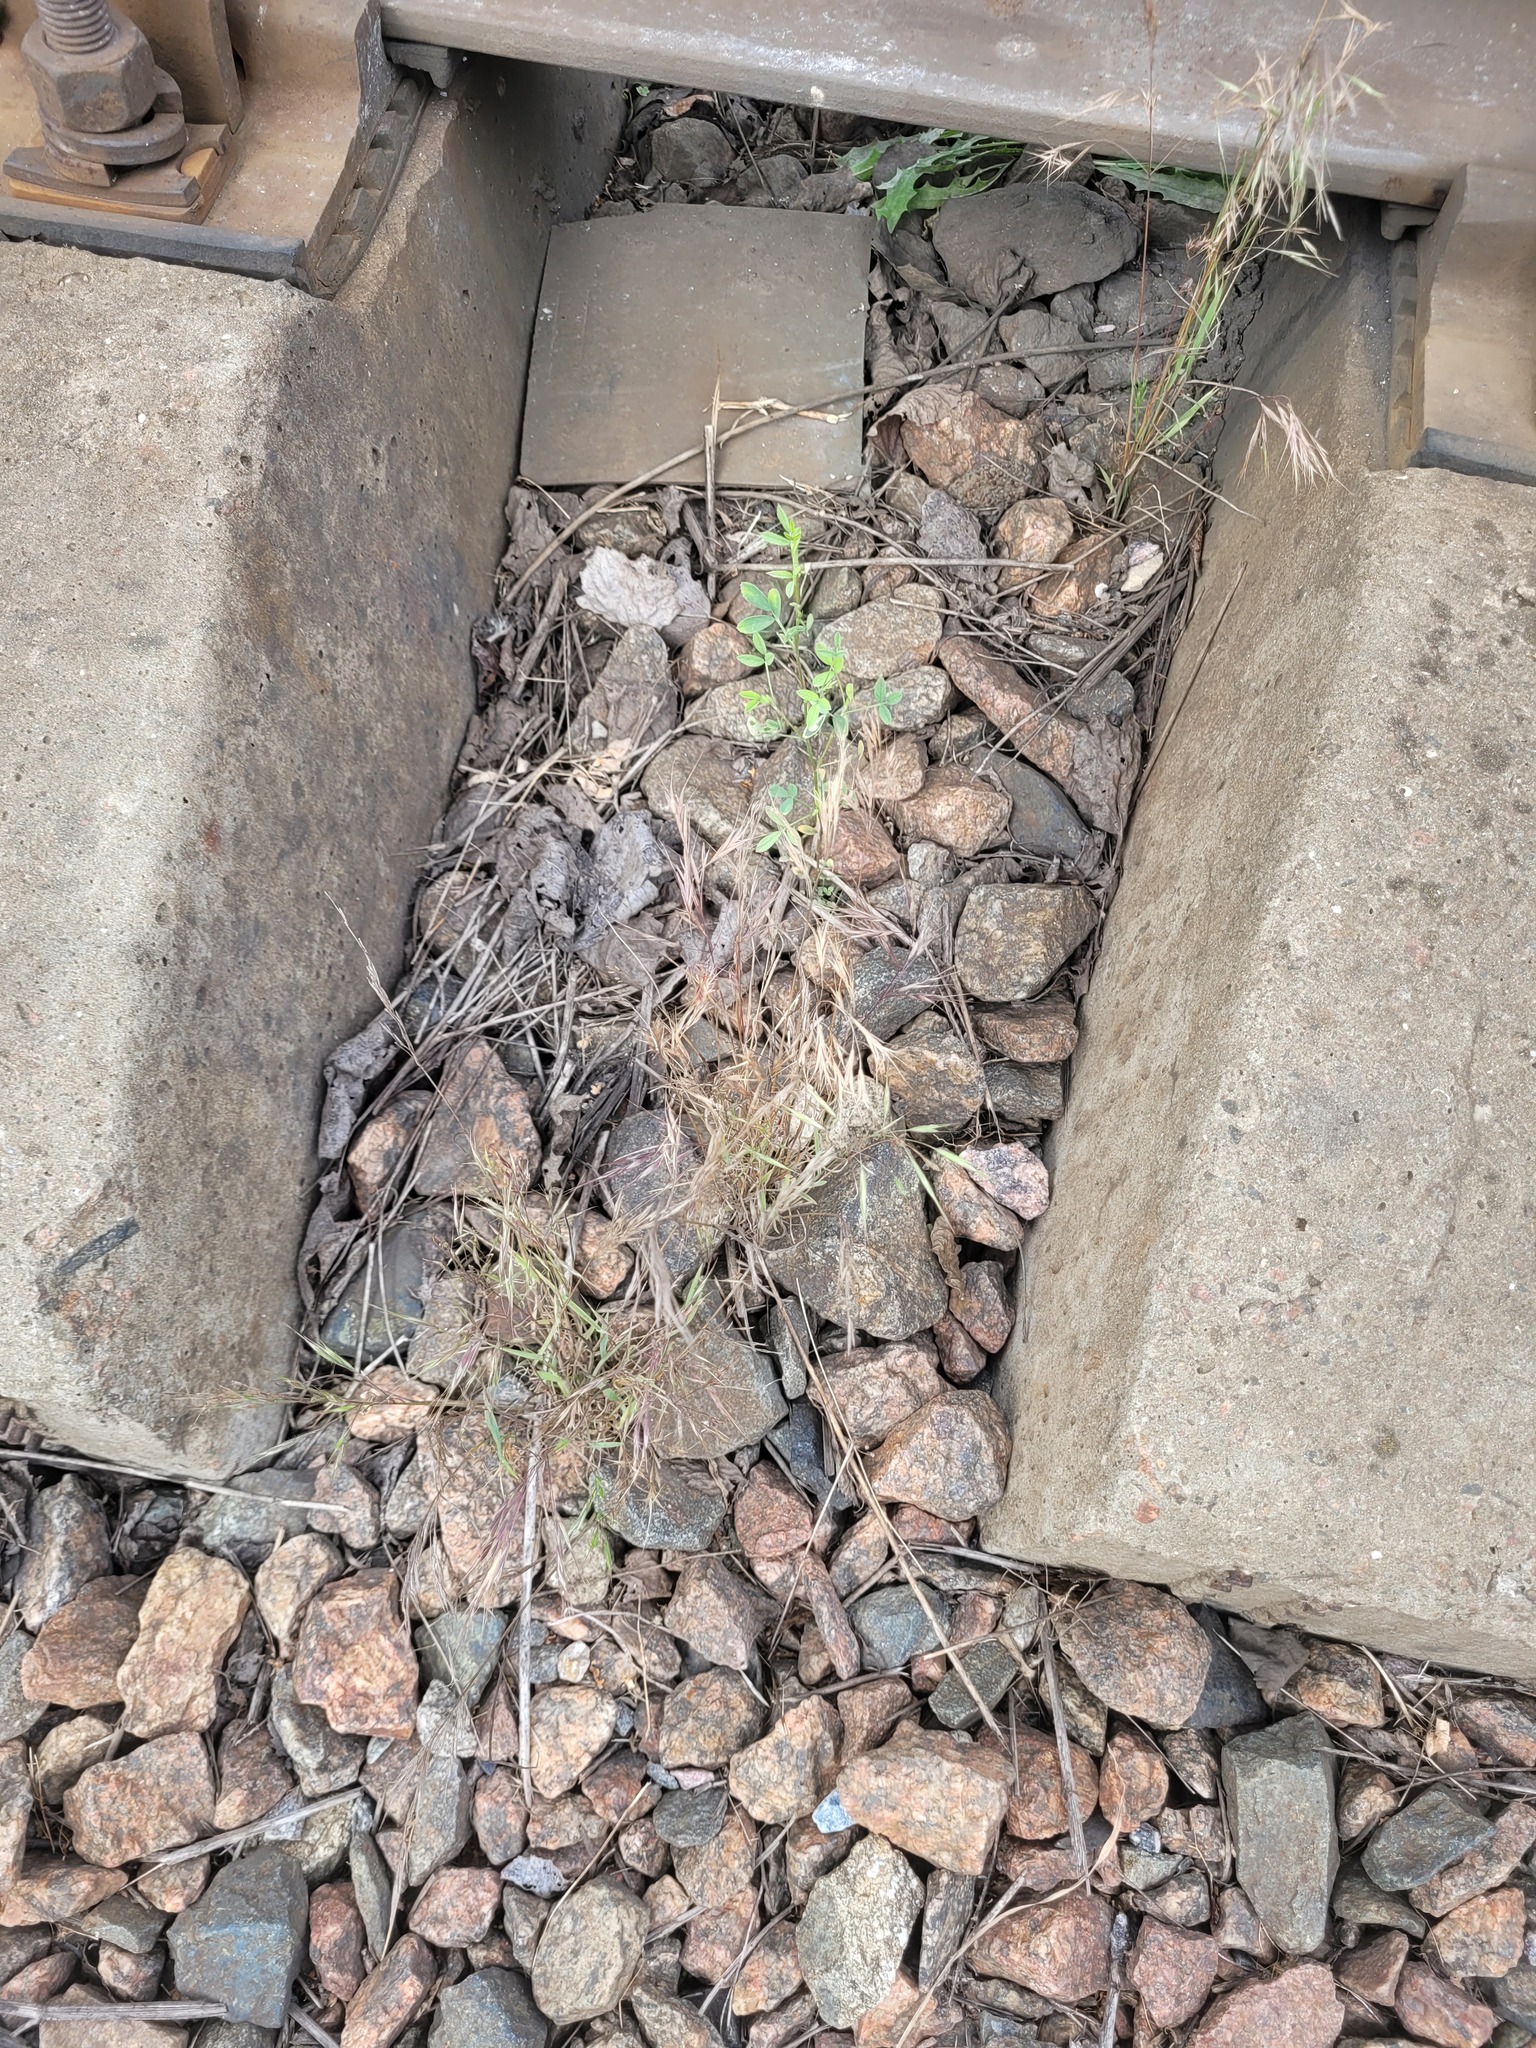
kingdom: Plantae
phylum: Tracheophyta
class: Liliopsida
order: Poales
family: Poaceae
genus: Bromus
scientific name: Bromus tectorum
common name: Cheatgrass
